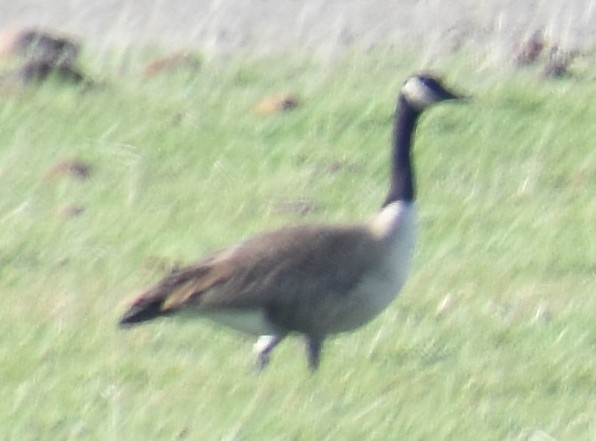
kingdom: Animalia
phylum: Chordata
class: Aves
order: Anseriformes
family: Anatidae
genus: Branta
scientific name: Branta canadensis
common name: Canada goose
